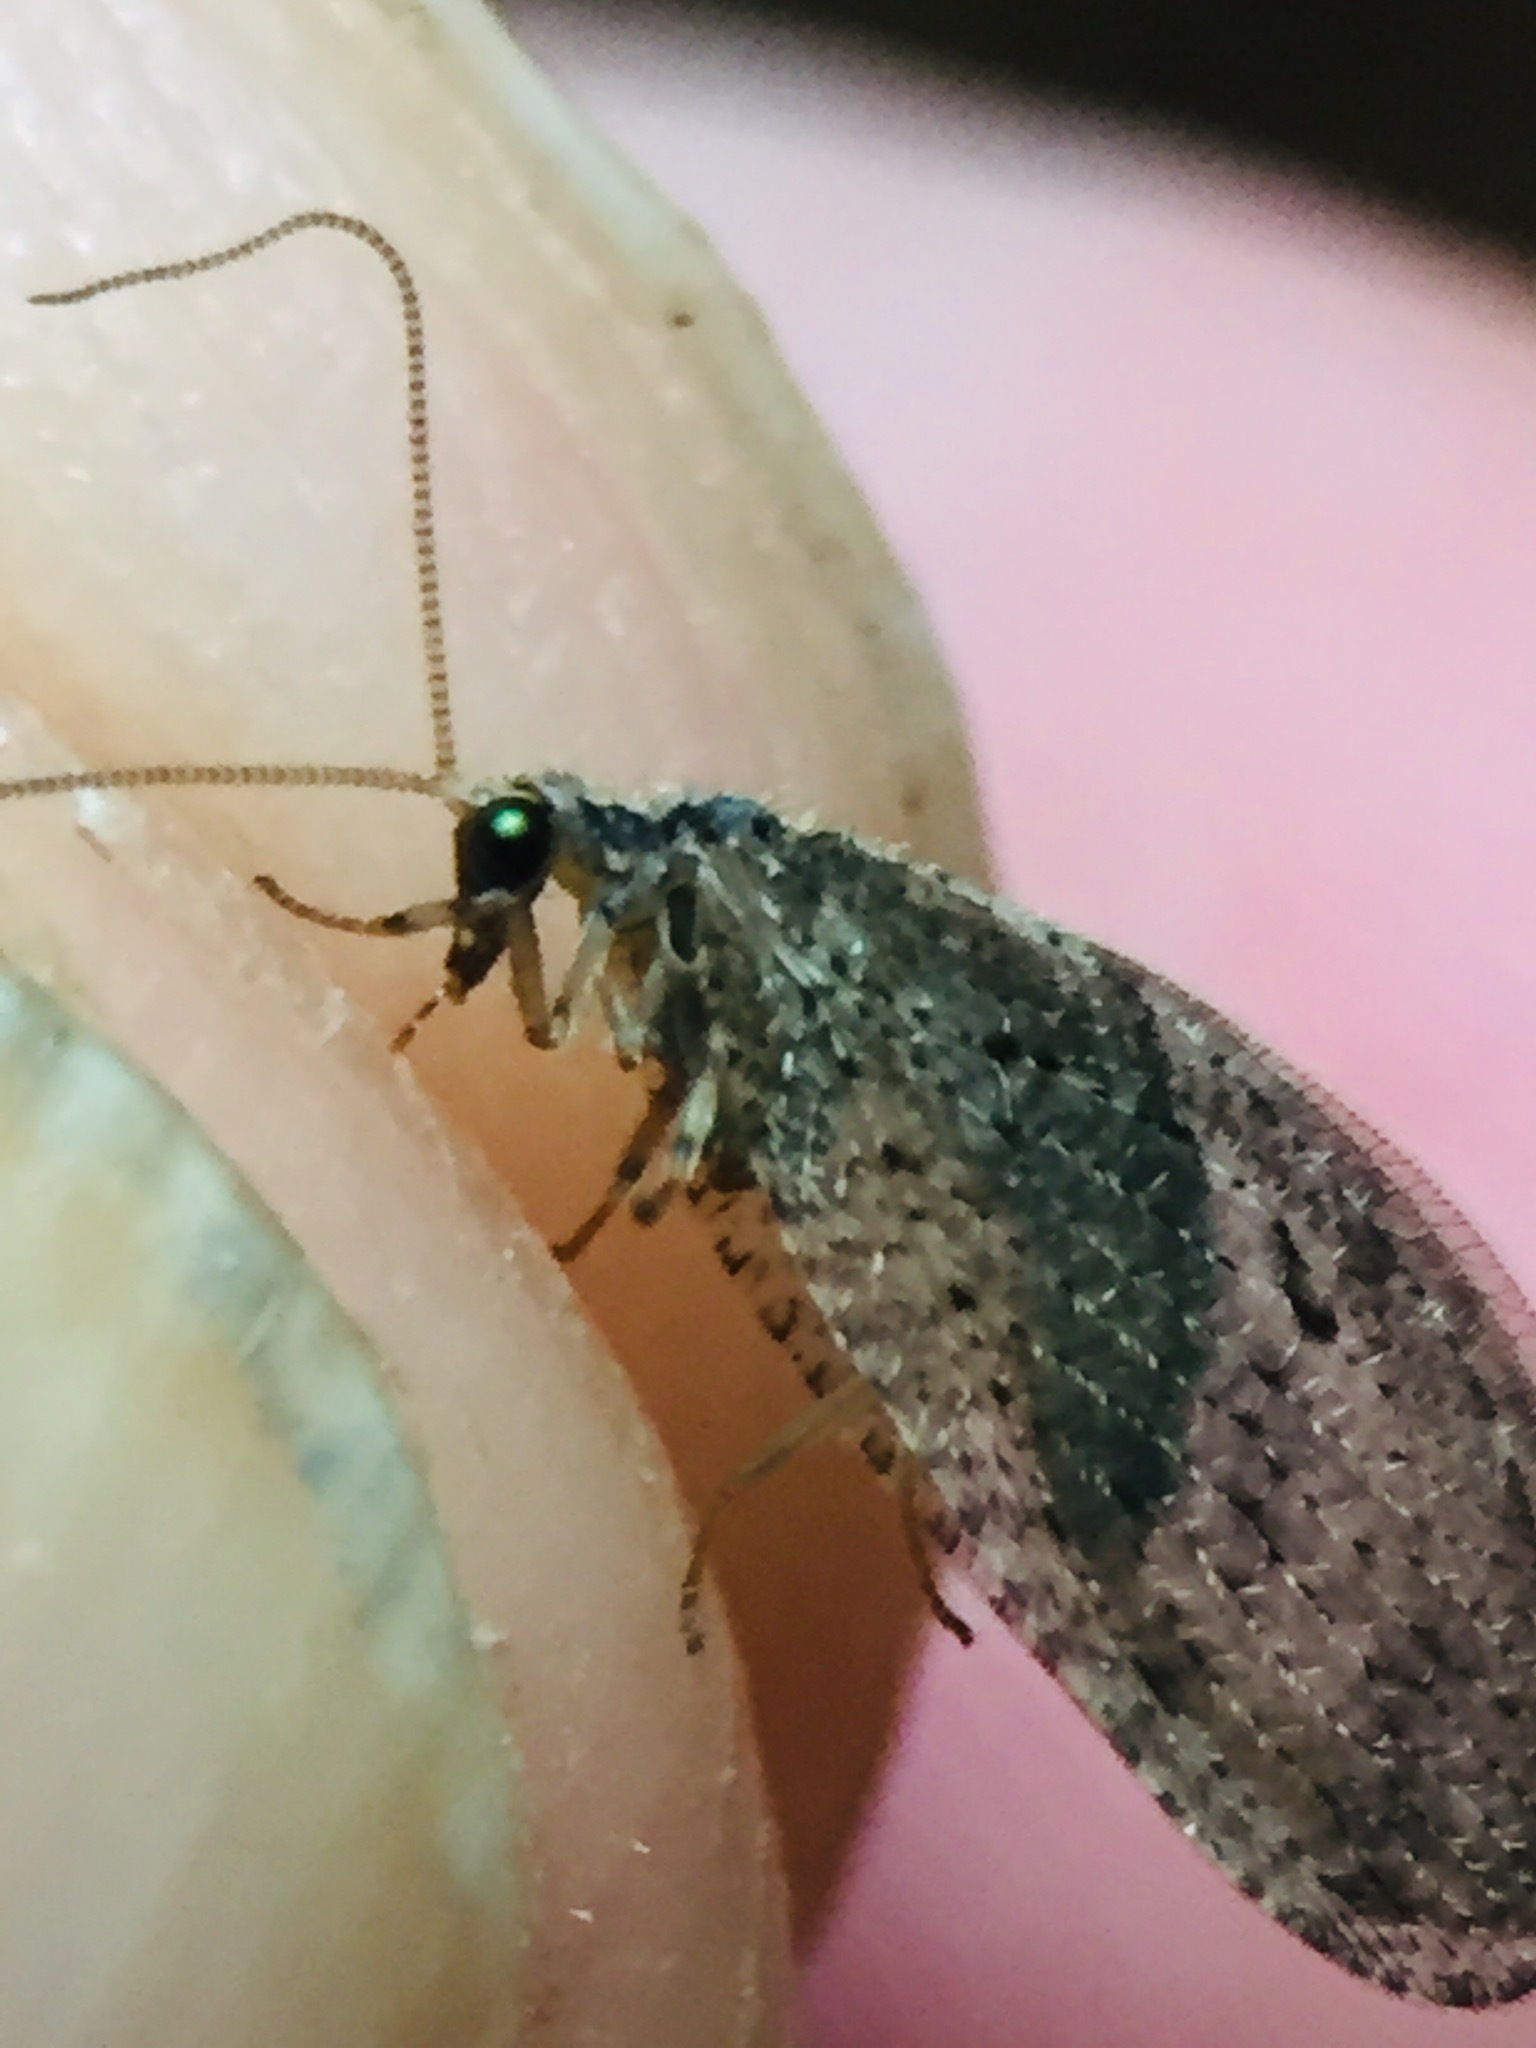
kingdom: Animalia
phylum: Arthropoda
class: Insecta
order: Neuroptera
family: Hemerobiidae
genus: Wesmaelius
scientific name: Wesmaelius subnebulosus
